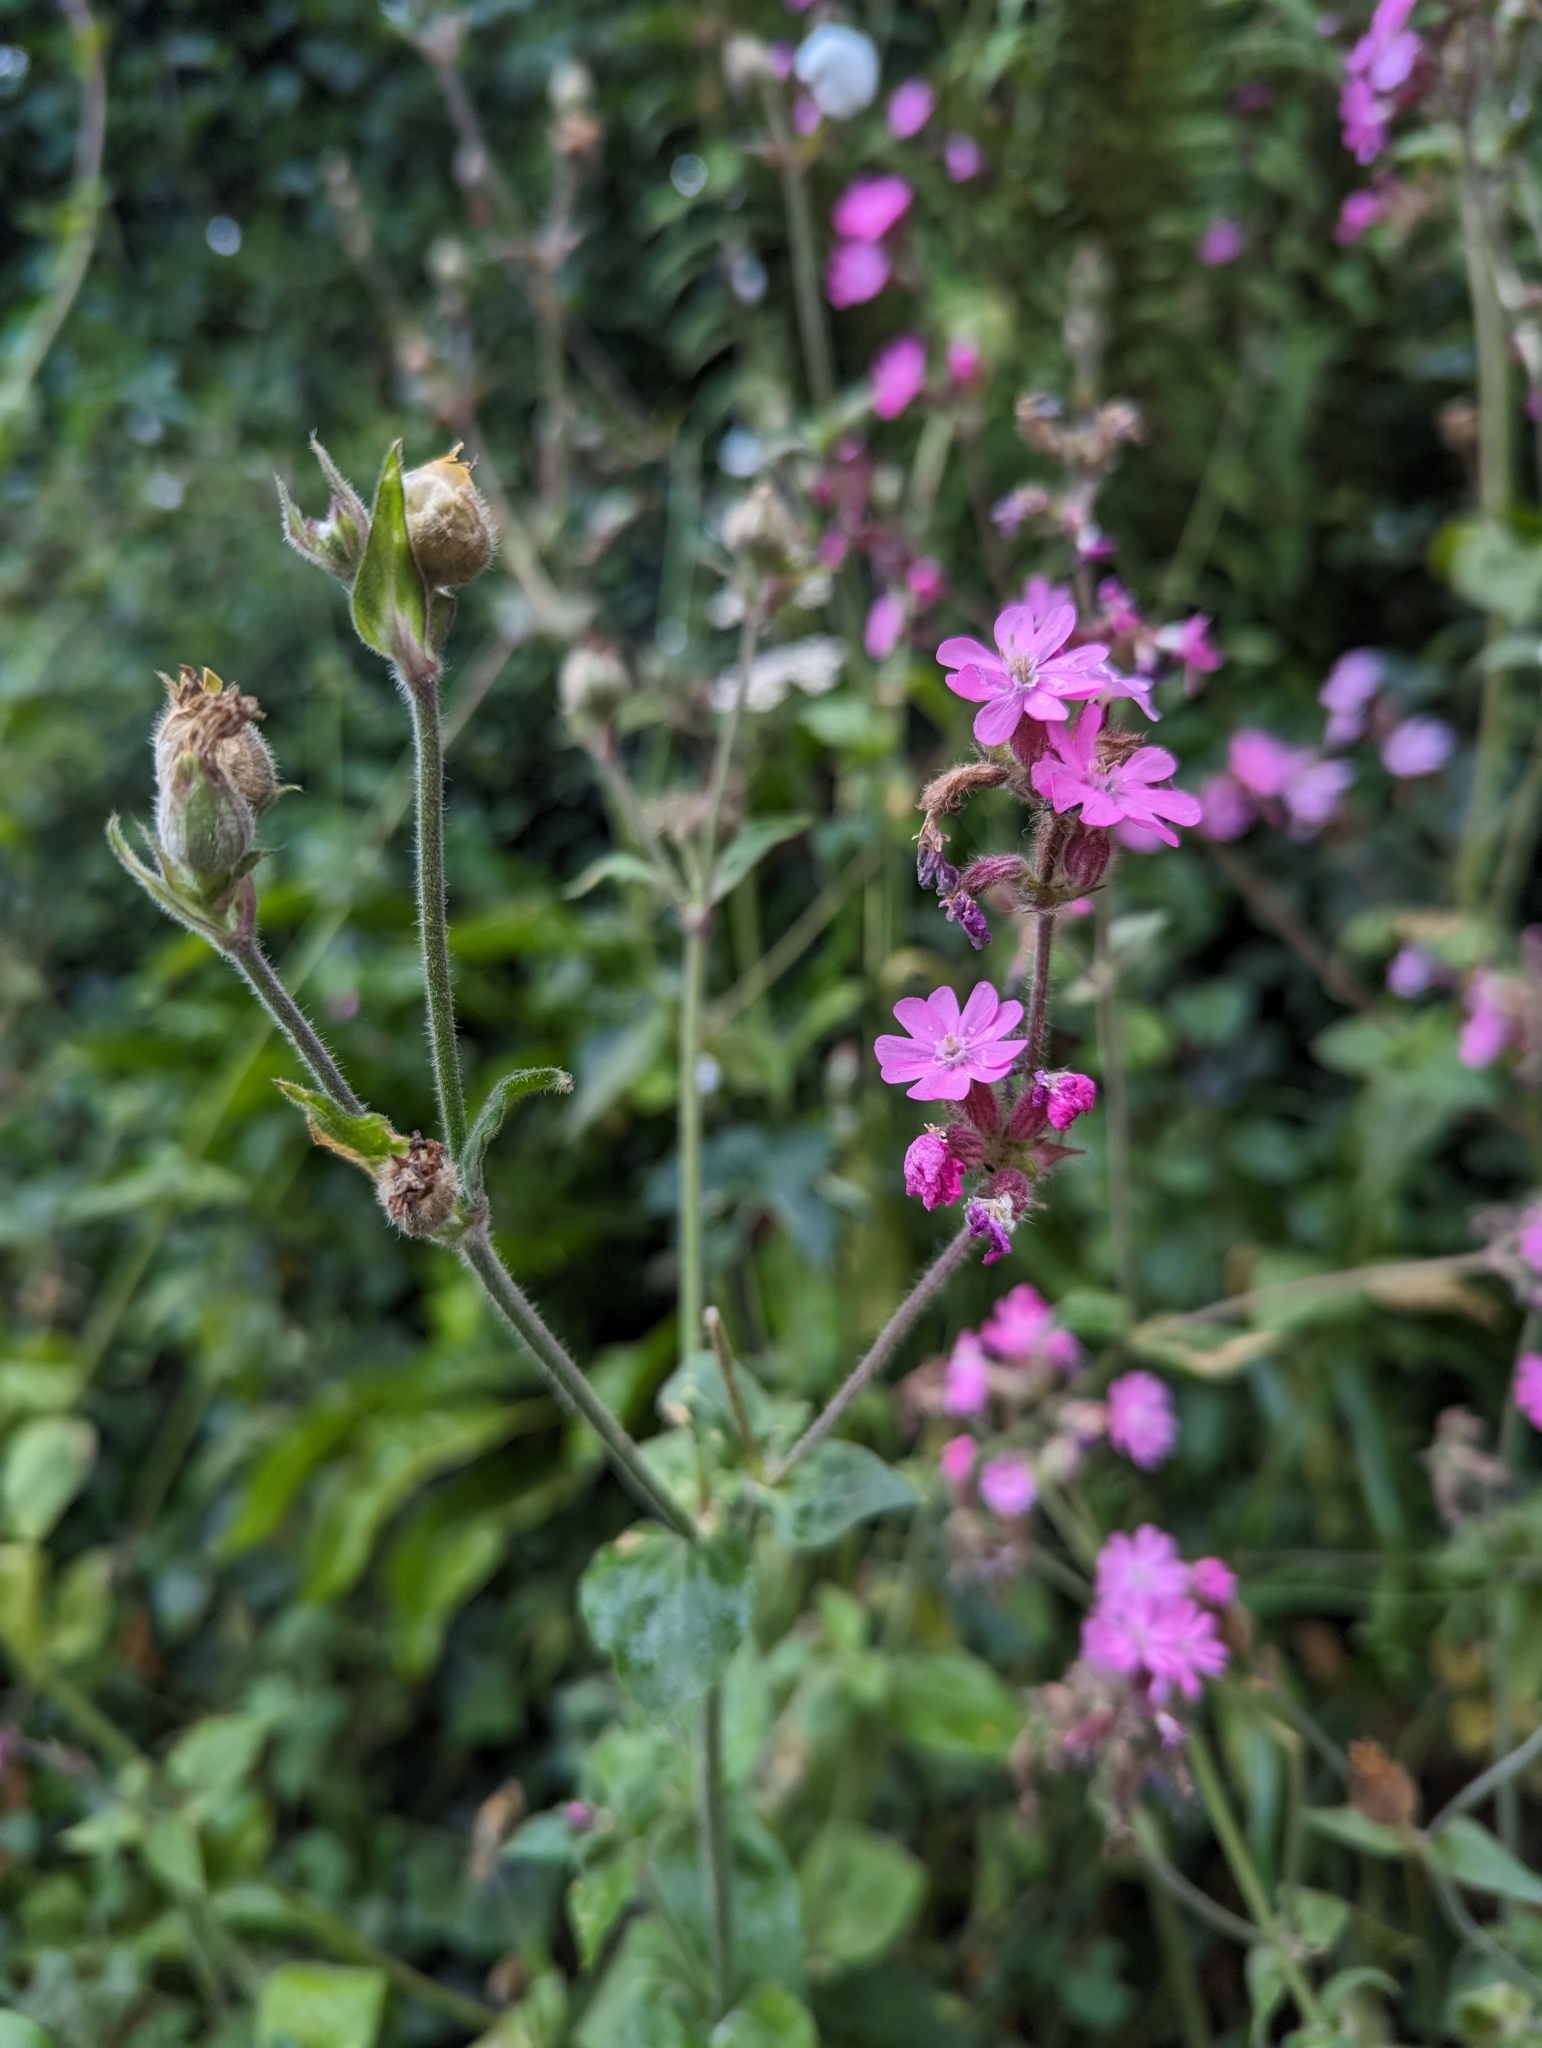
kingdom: Plantae
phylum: Tracheophyta
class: Magnoliopsida
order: Caryophyllales
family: Caryophyllaceae
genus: Silene
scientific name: Silene dioica
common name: Red campion
